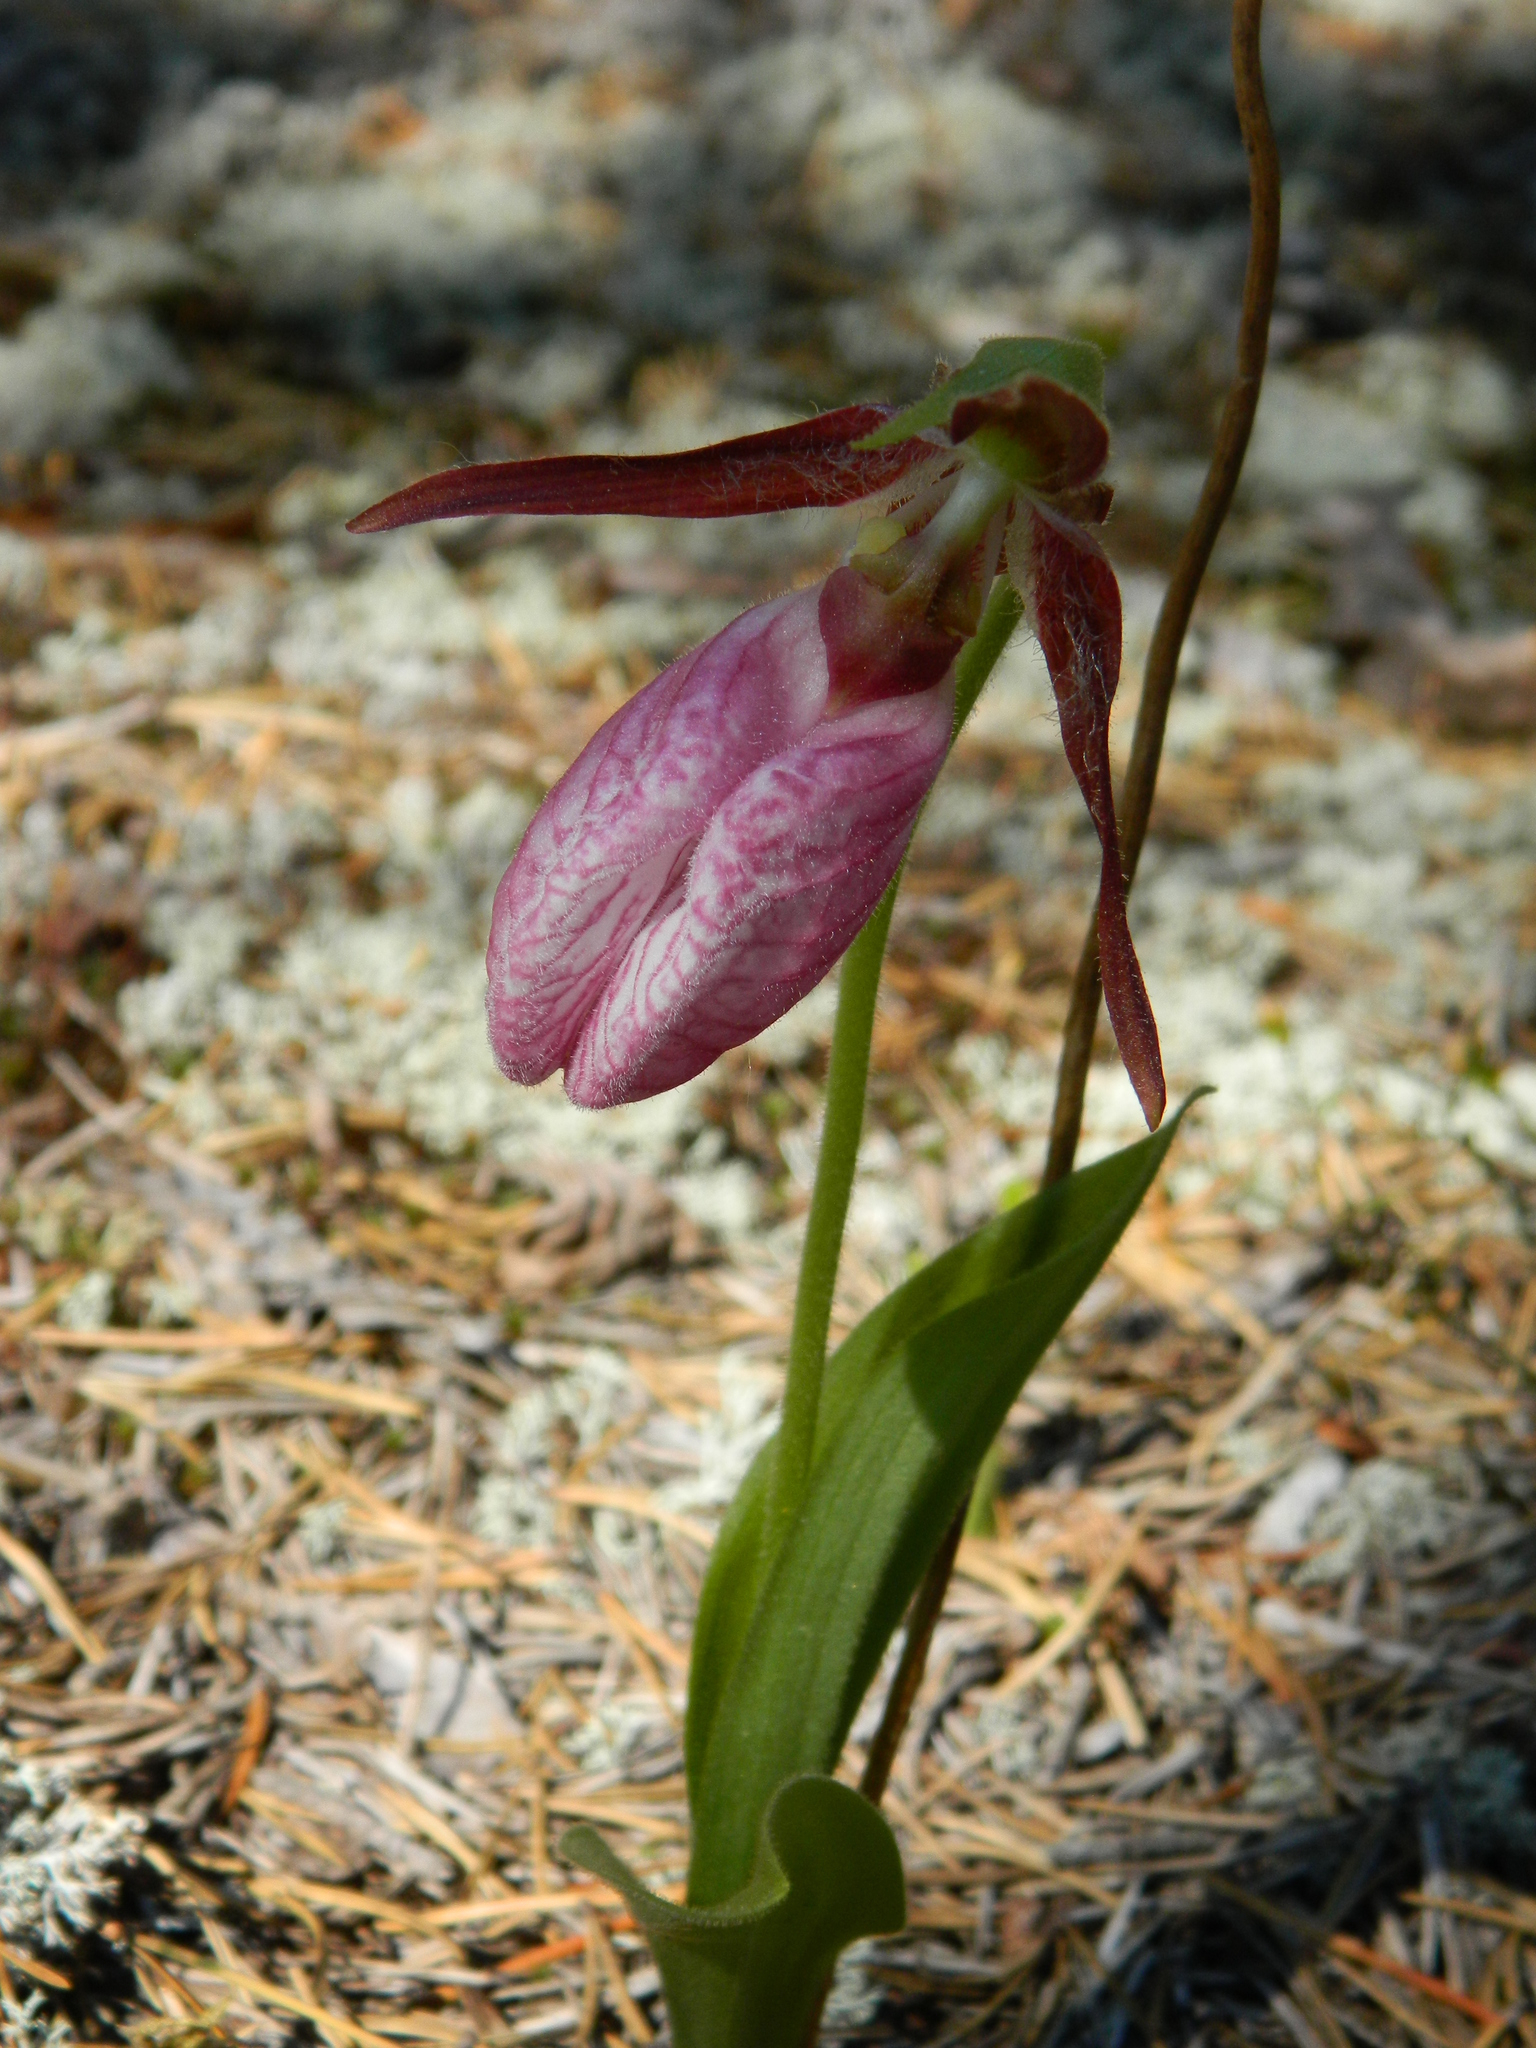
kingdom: Plantae
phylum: Tracheophyta
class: Liliopsida
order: Asparagales
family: Orchidaceae
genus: Cypripedium
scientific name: Cypripedium acaule
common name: Pink lady's-slipper
